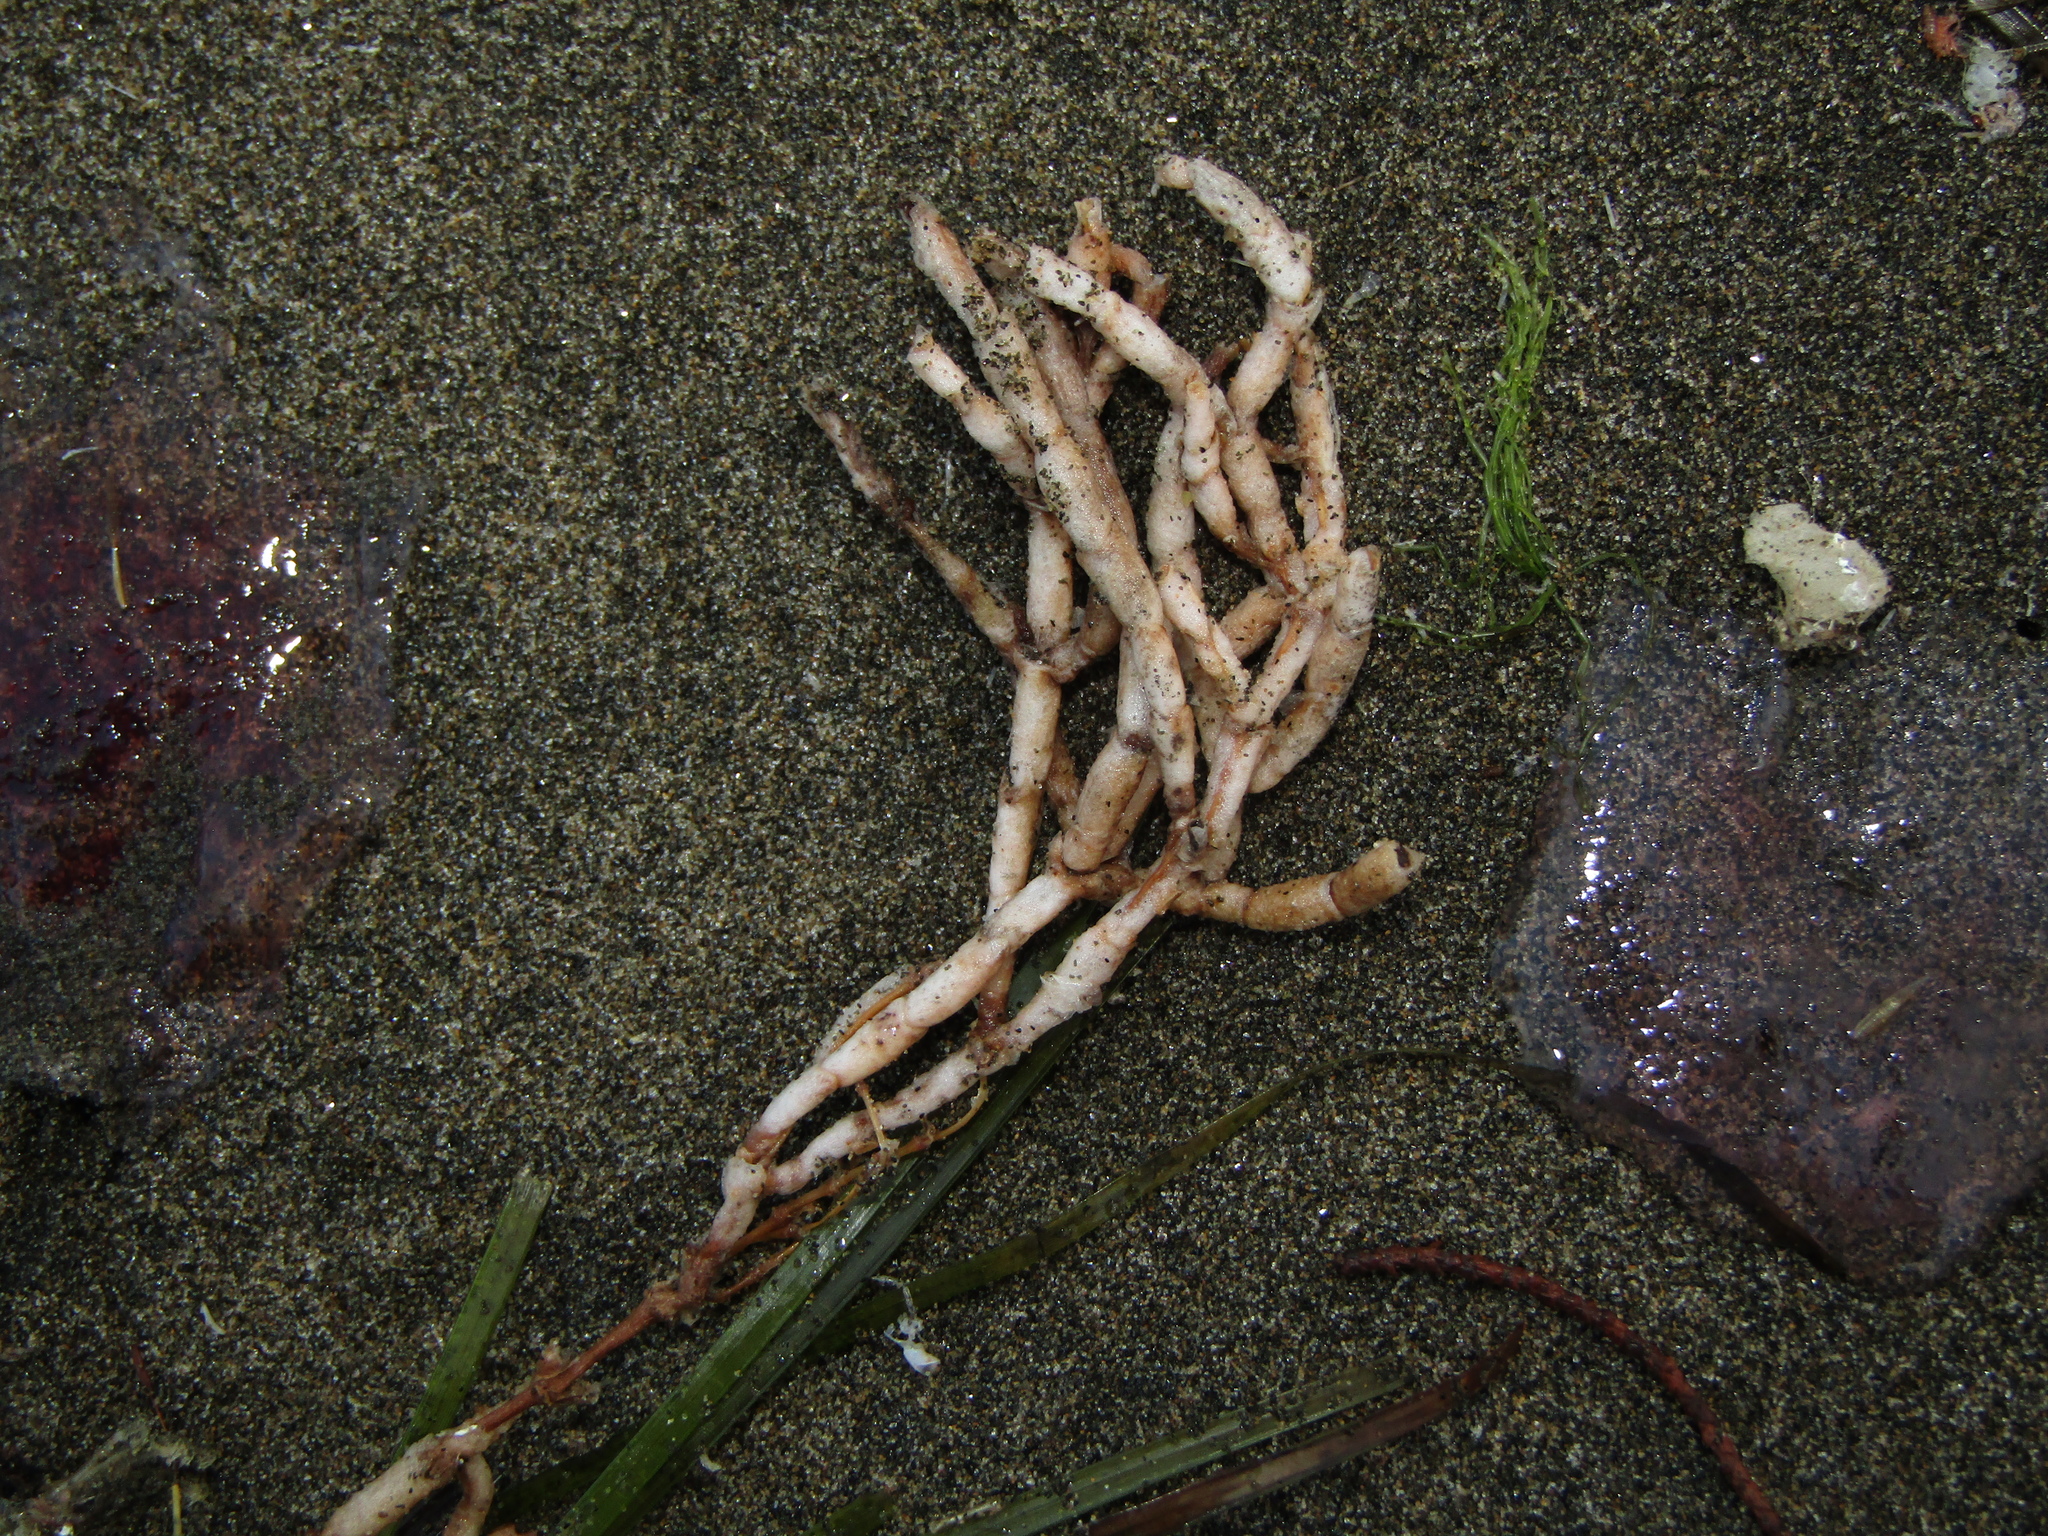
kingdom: Plantae
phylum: Tracheophyta
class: Magnoliopsida
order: Caryophyllales
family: Amaranthaceae
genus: Salicornia
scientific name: Salicornia quinqueflora
